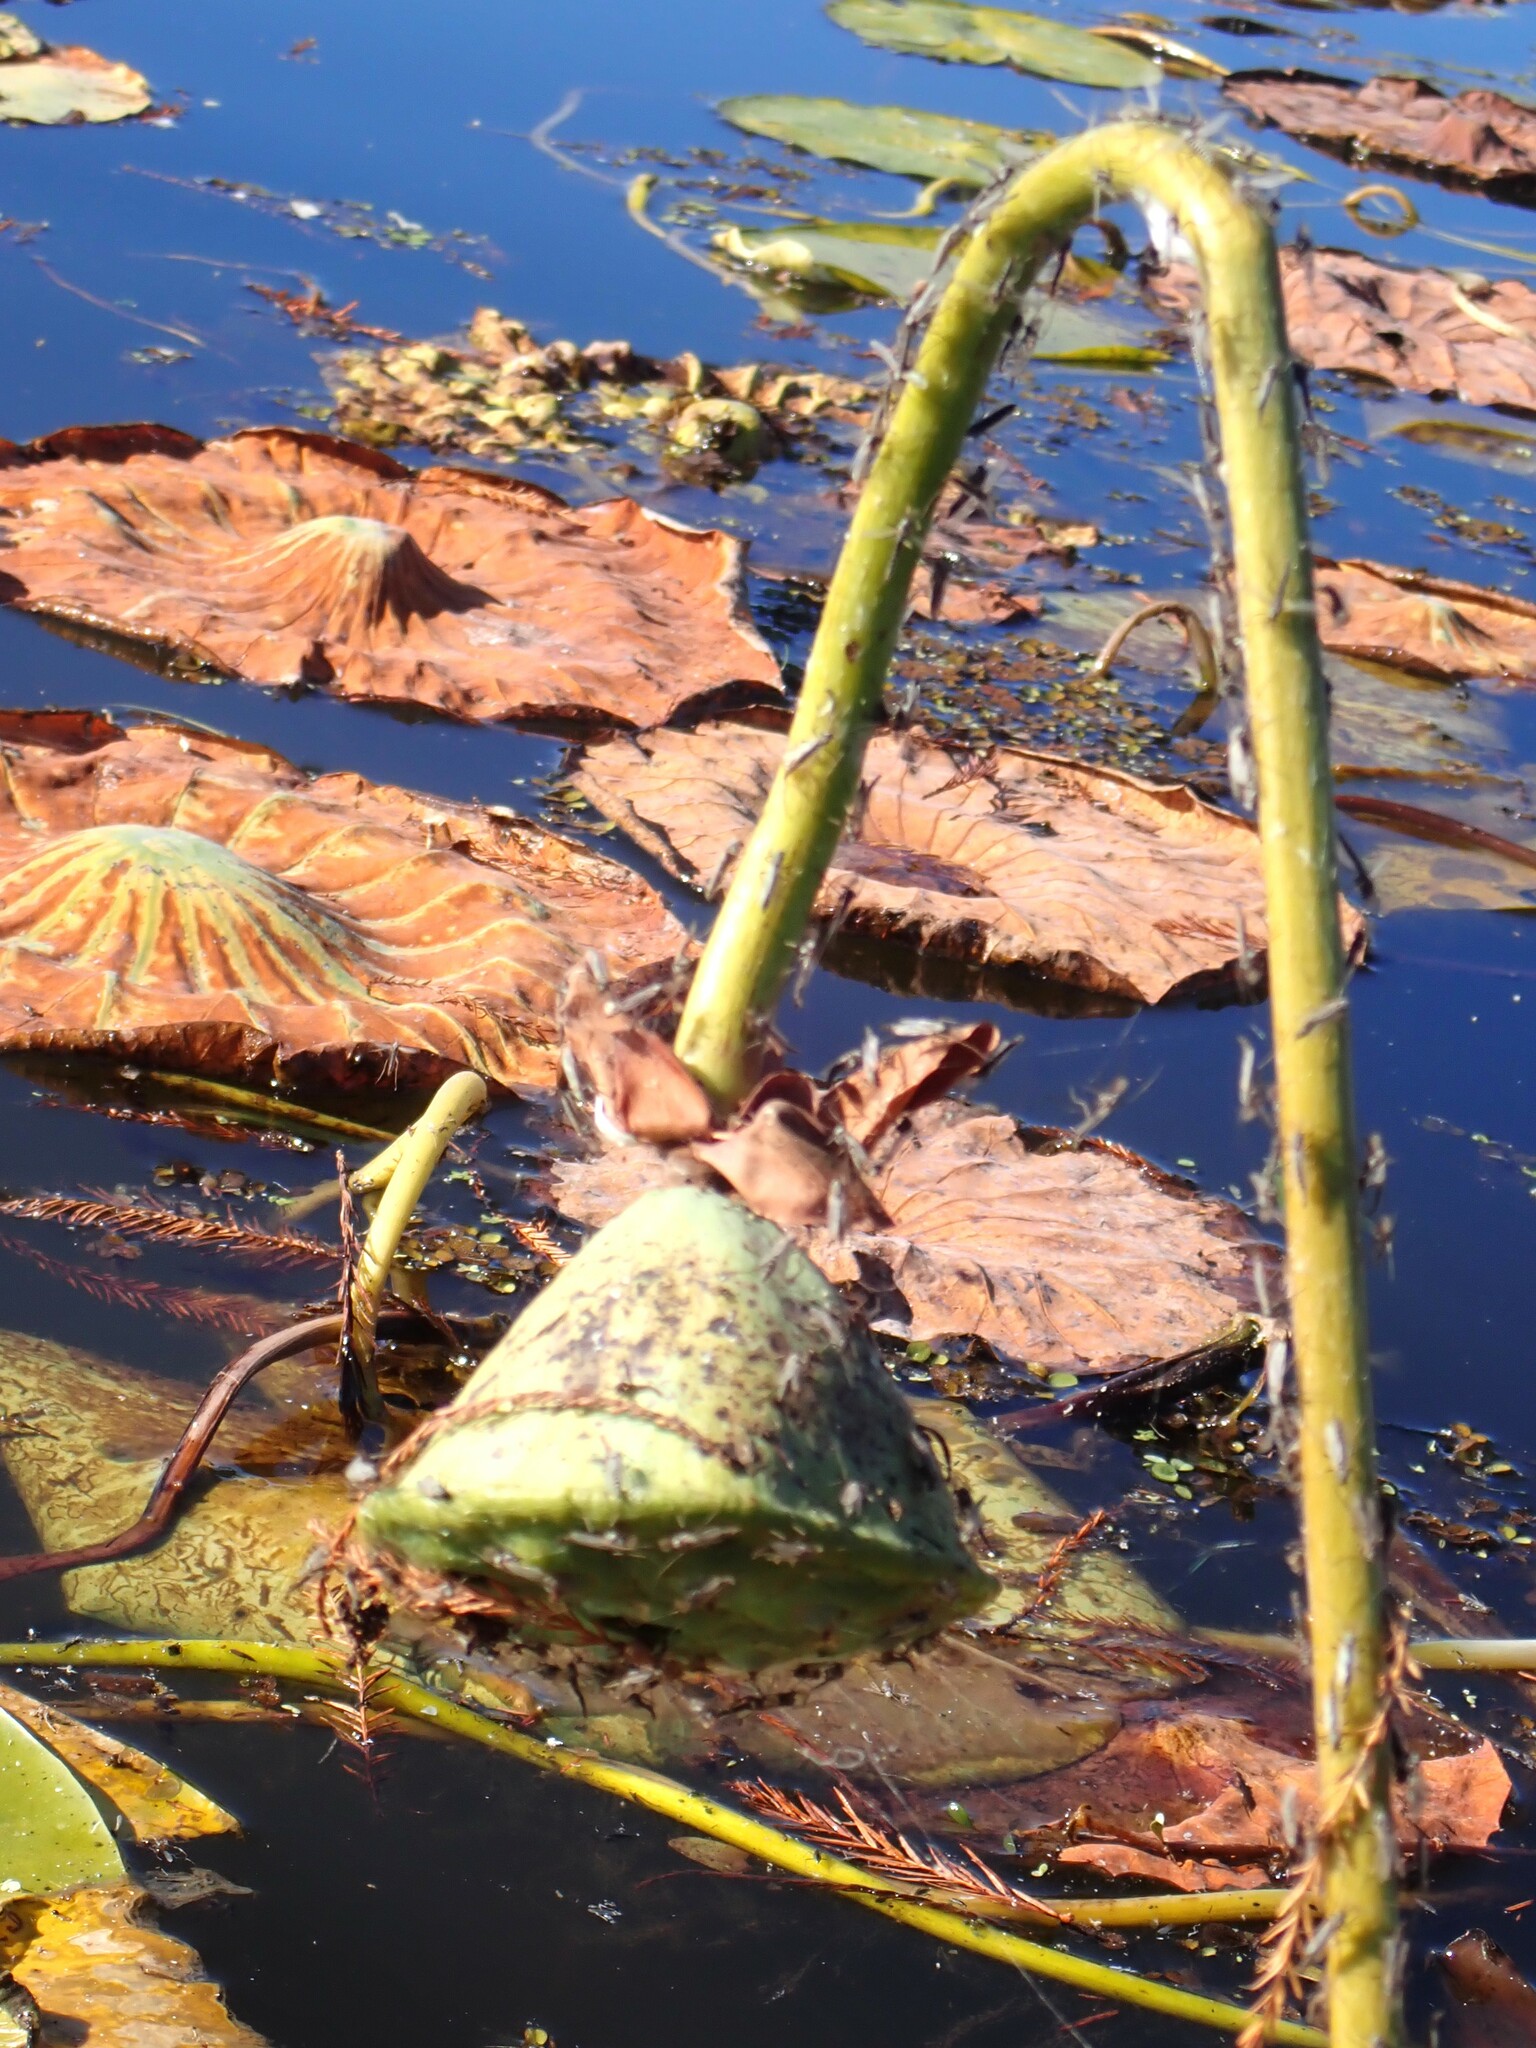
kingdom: Plantae
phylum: Tracheophyta
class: Magnoliopsida
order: Proteales
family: Nelumbonaceae
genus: Nelumbo
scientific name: Nelumbo lutea
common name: American lotus
